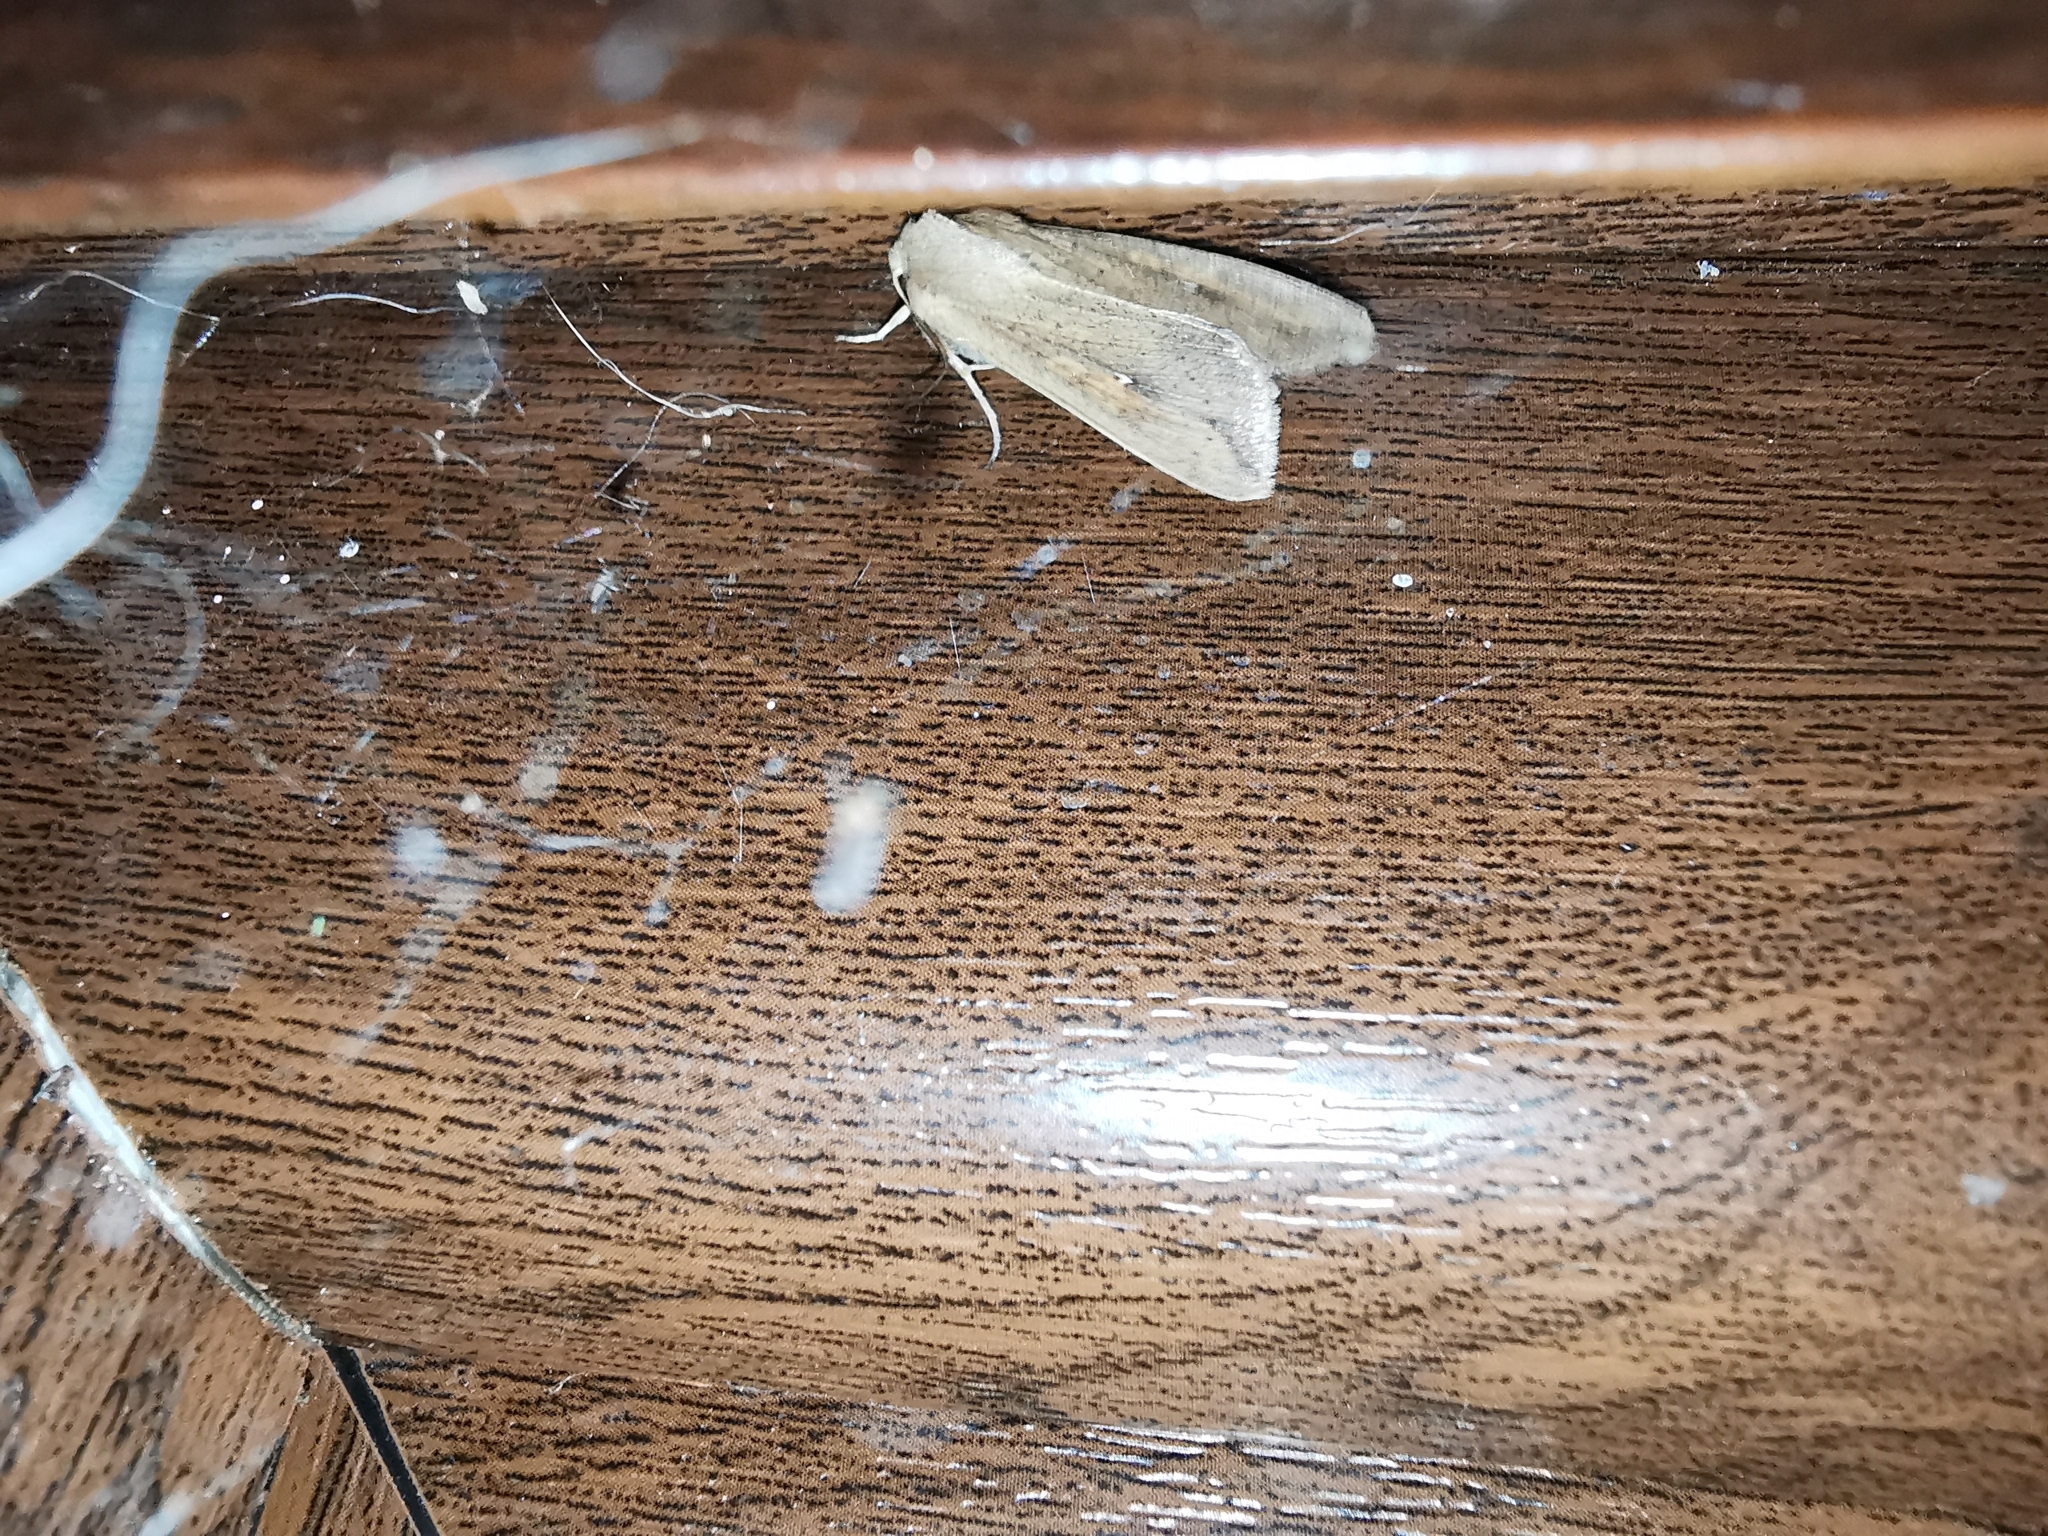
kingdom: Animalia
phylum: Arthropoda
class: Insecta
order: Lepidoptera
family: Noctuidae
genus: Mythimna
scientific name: Mythimna unipuncta
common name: White-speck
